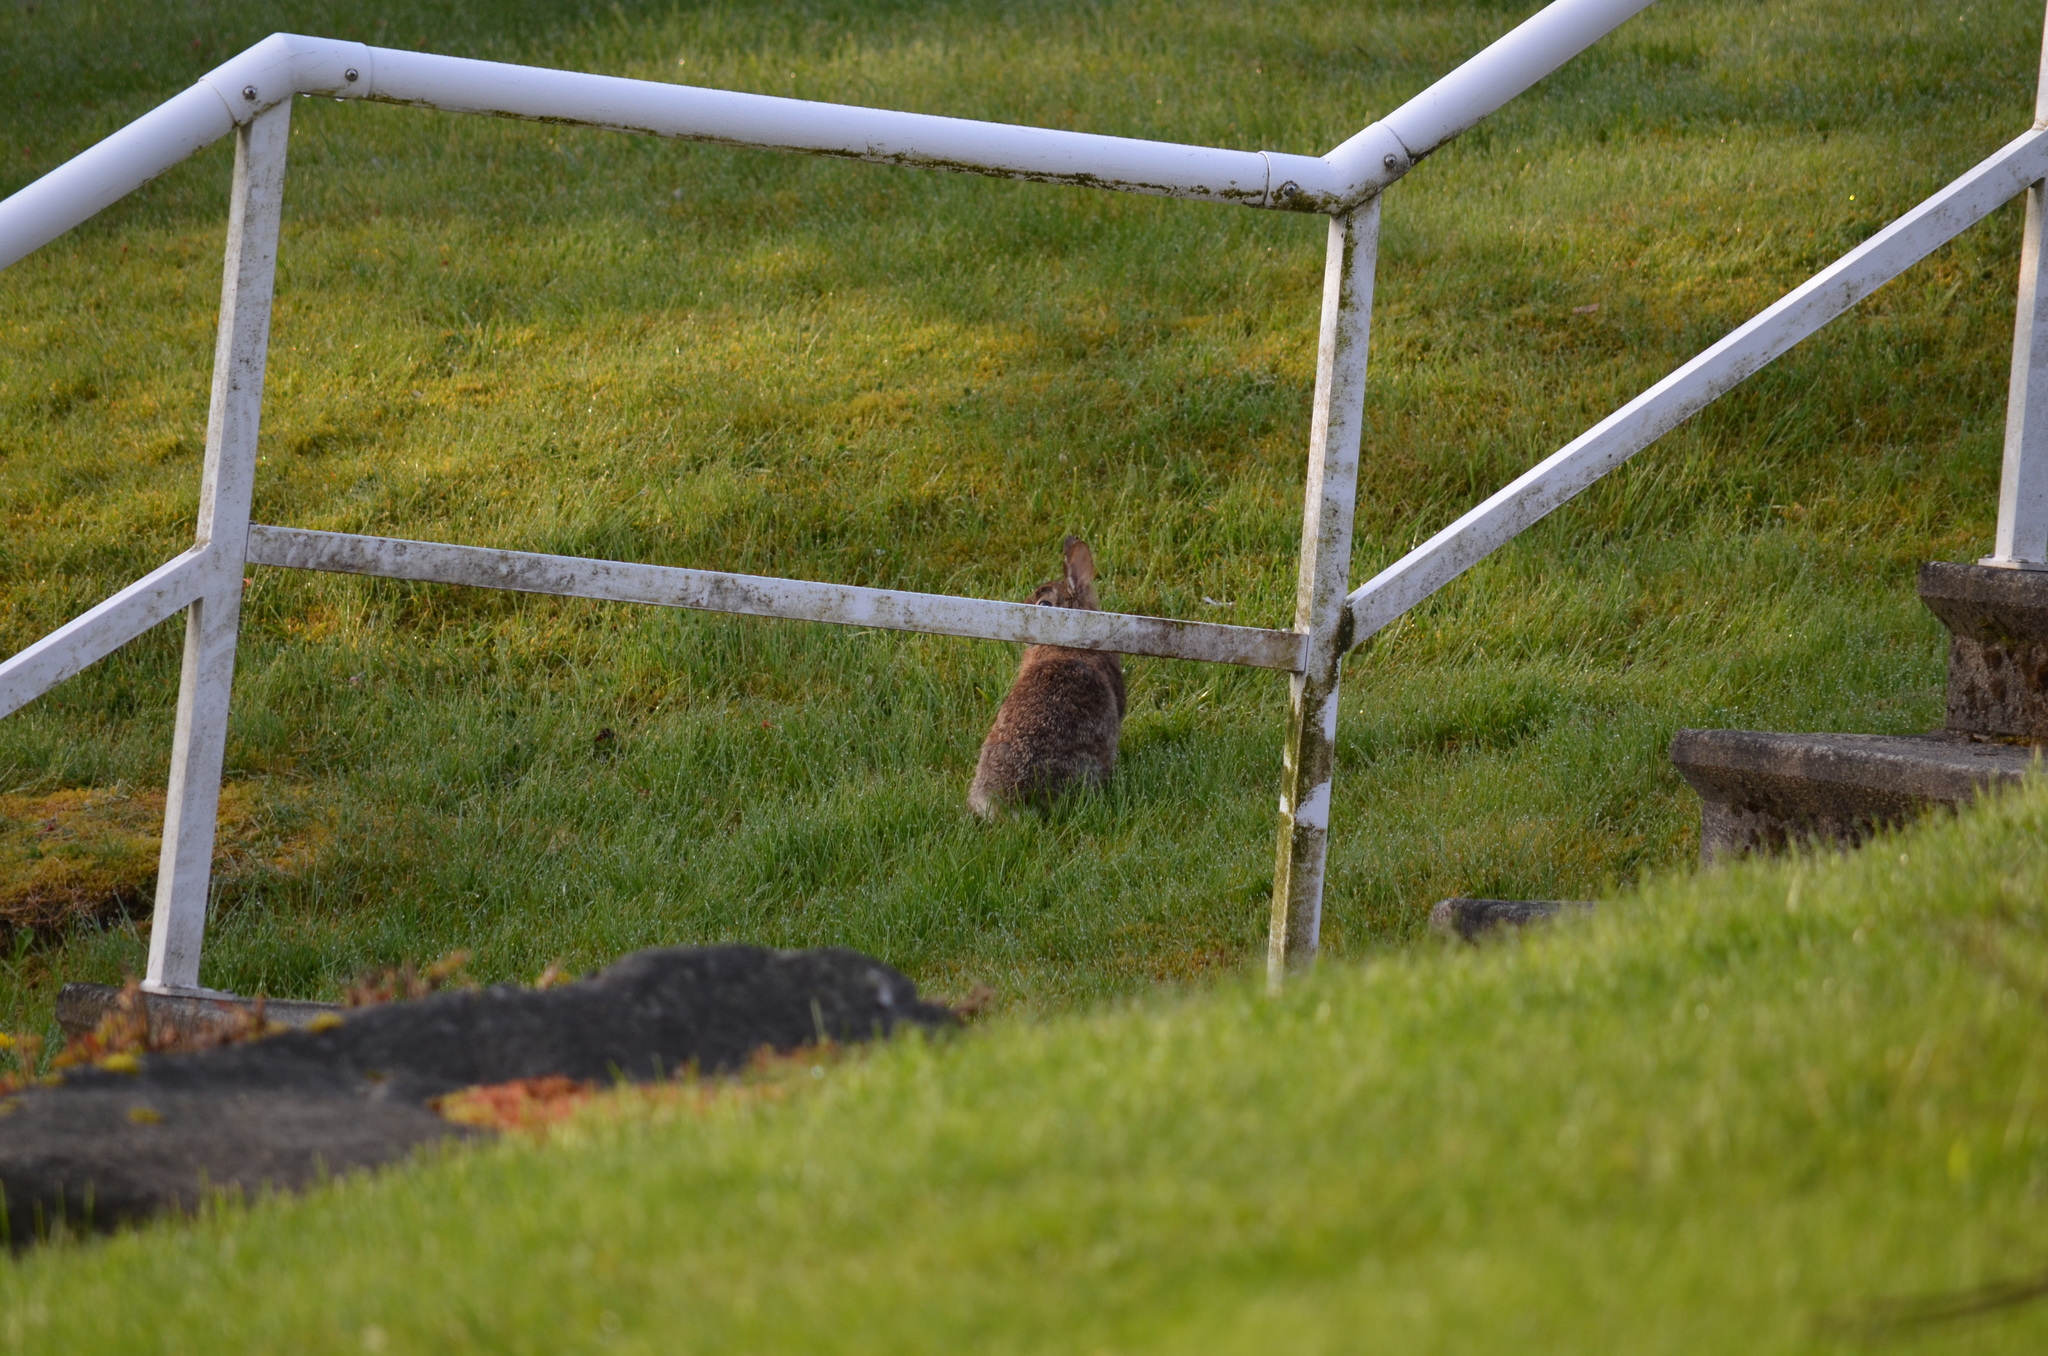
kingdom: Animalia
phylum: Chordata
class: Mammalia
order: Lagomorpha
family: Leporidae
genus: Sylvilagus
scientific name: Sylvilagus floridanus
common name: Eastern cottontail
